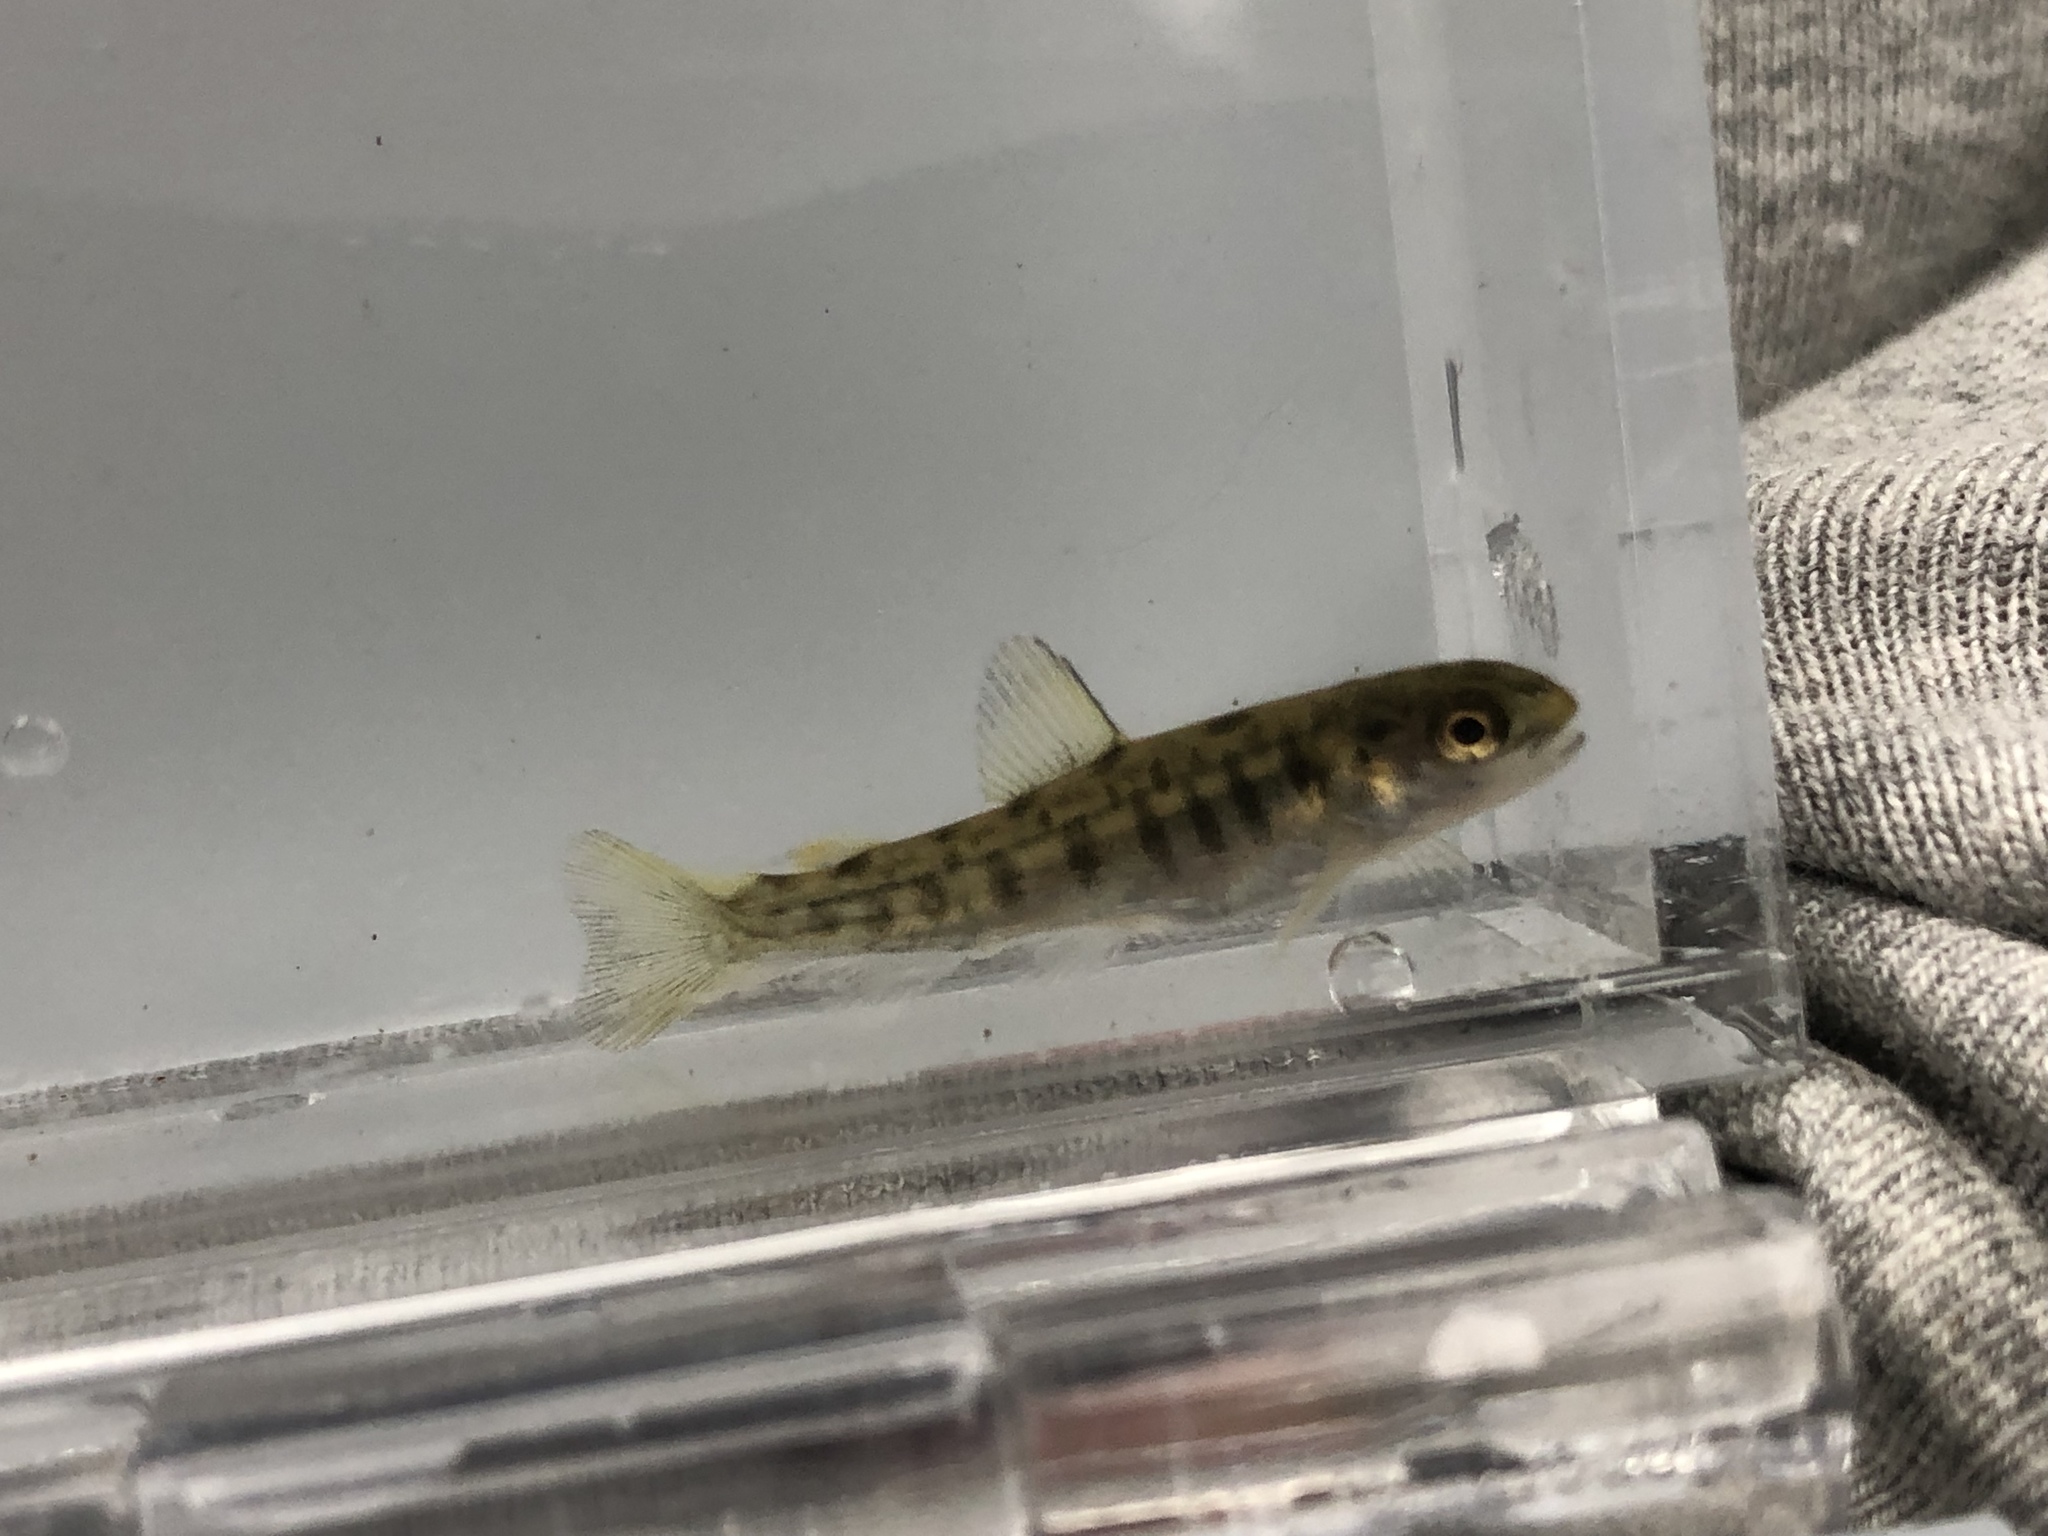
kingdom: Animalia
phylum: Chordata
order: Salmoniformes
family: Salmonidae
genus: Salmo
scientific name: Salmo trutta
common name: Brown trout
